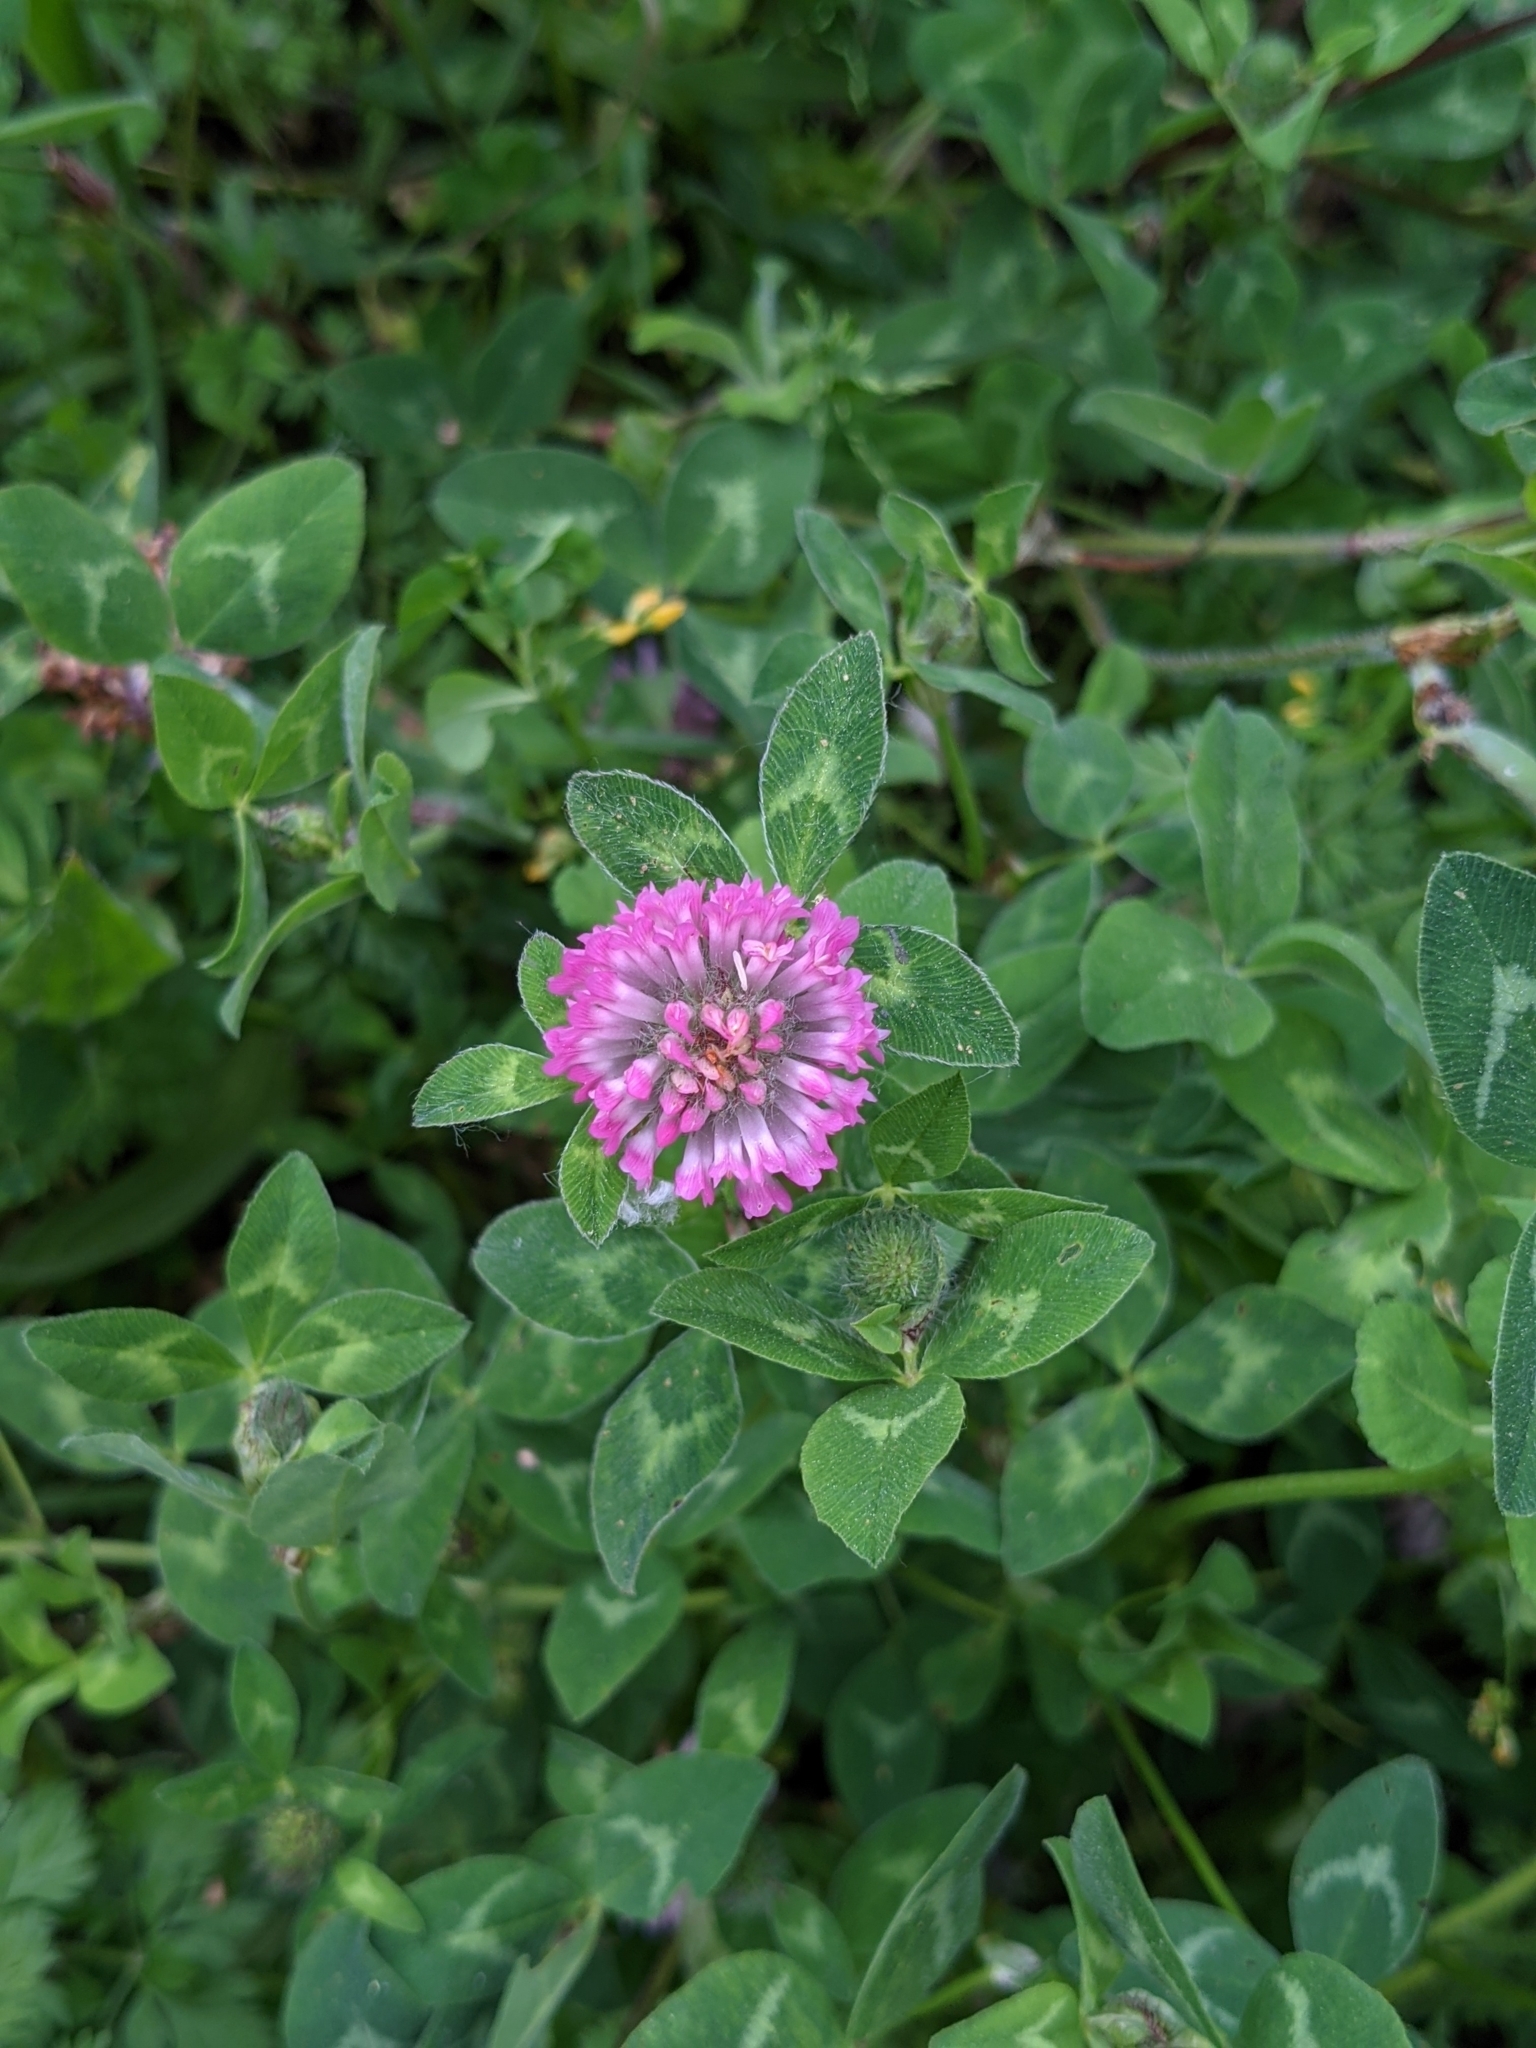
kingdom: Plantae
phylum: Tracheophyta
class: Magnoliopsida
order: Fabales
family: Fabaceae
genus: Trifolium
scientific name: Trifolium pratense
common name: Red clover
